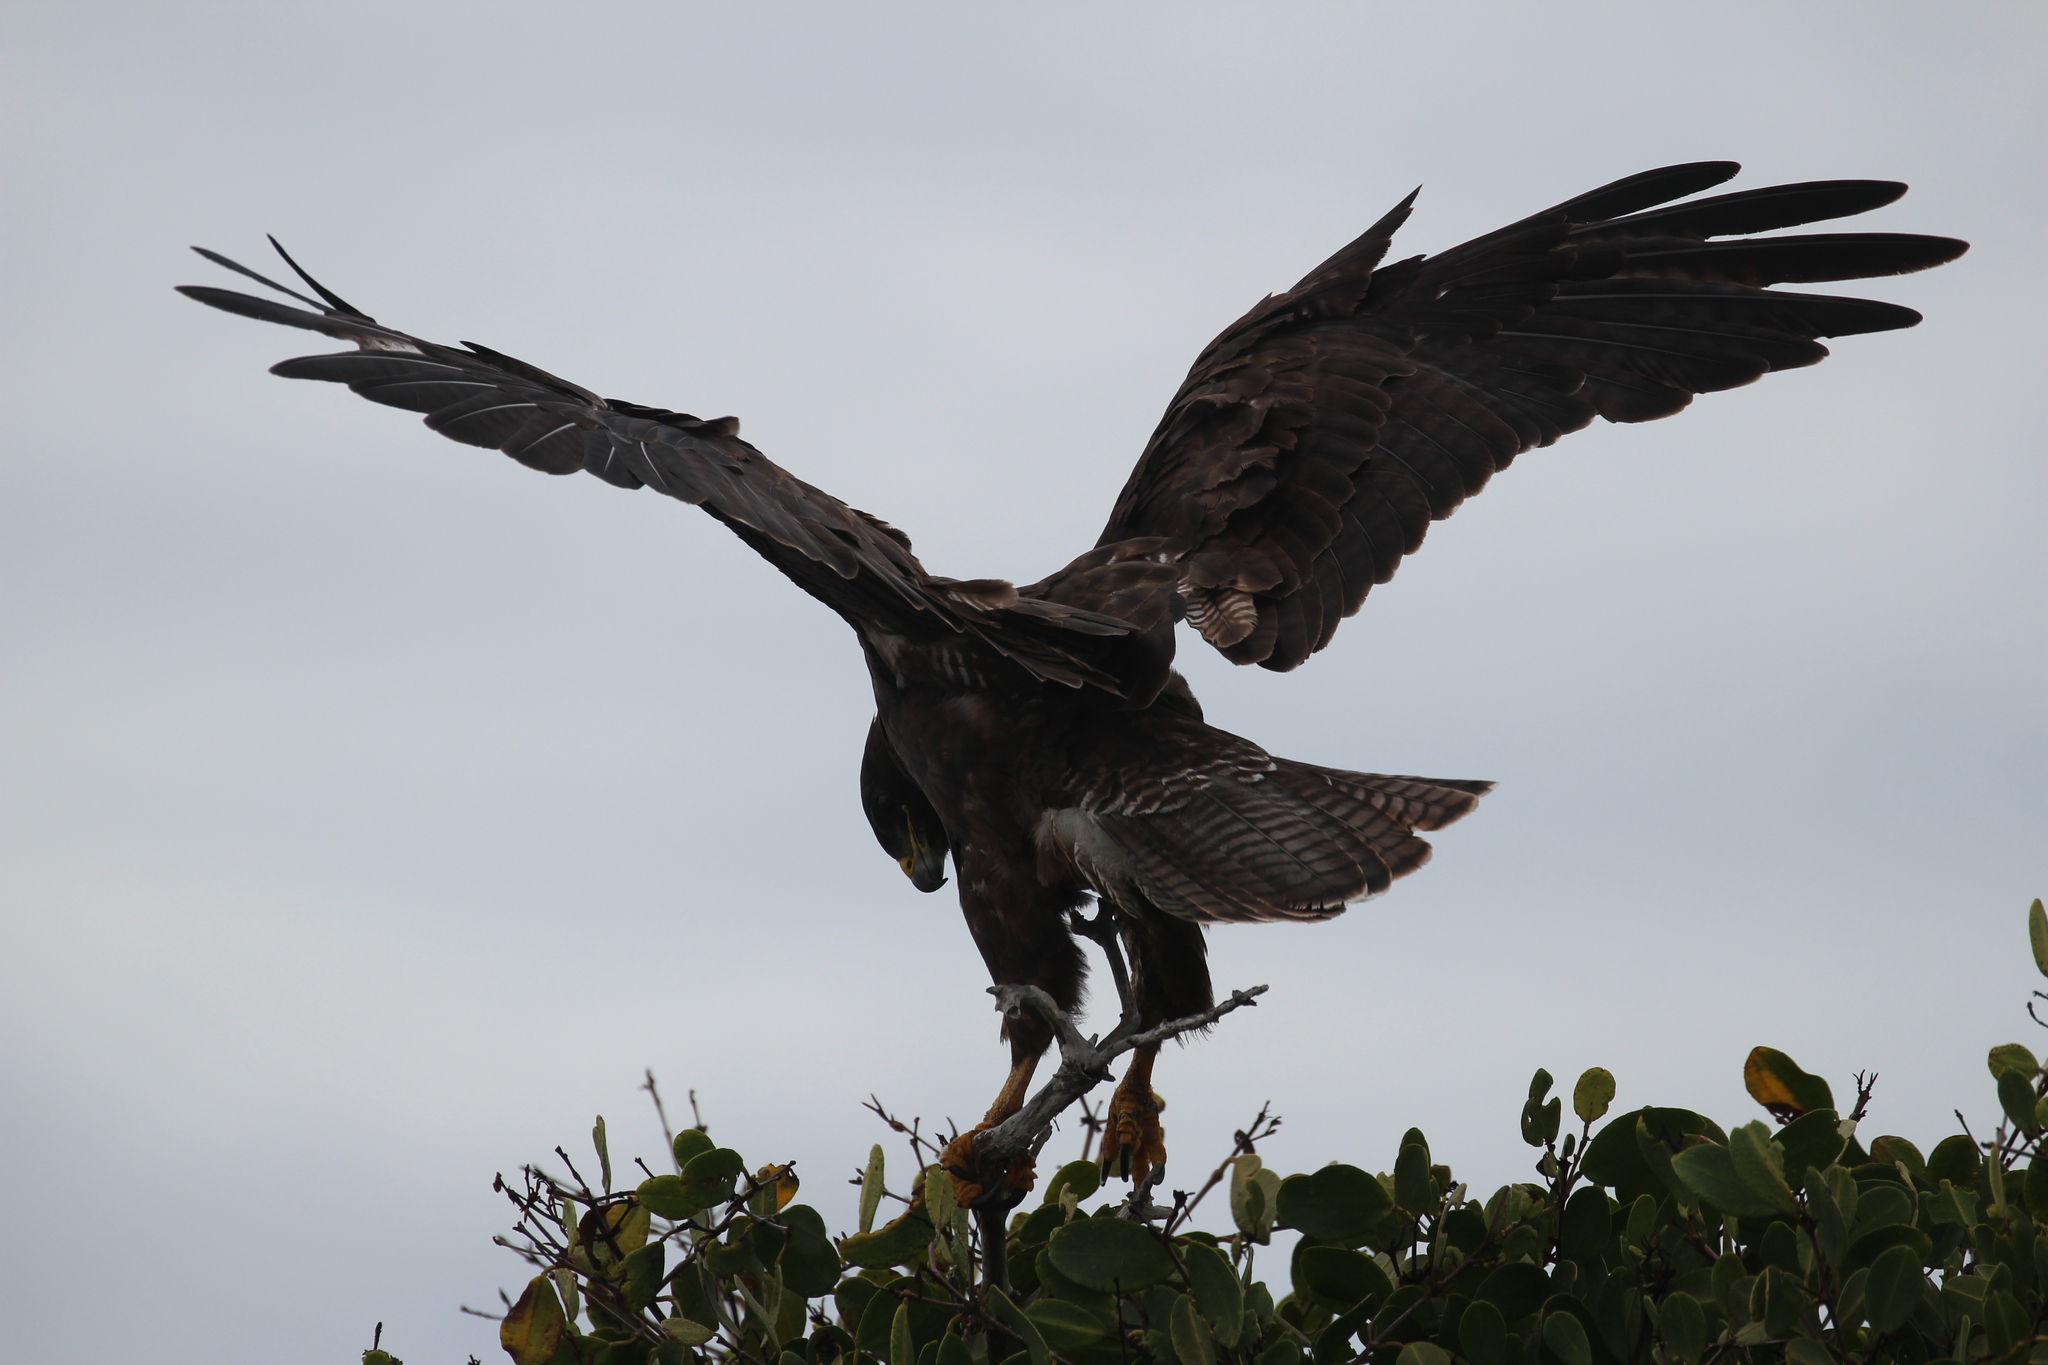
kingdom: Animalia
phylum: Chordata
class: Aves
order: Accipitriformes
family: Accipitridae
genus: Buteo
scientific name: Buteo galapagoensis
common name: Galapagos hawk
